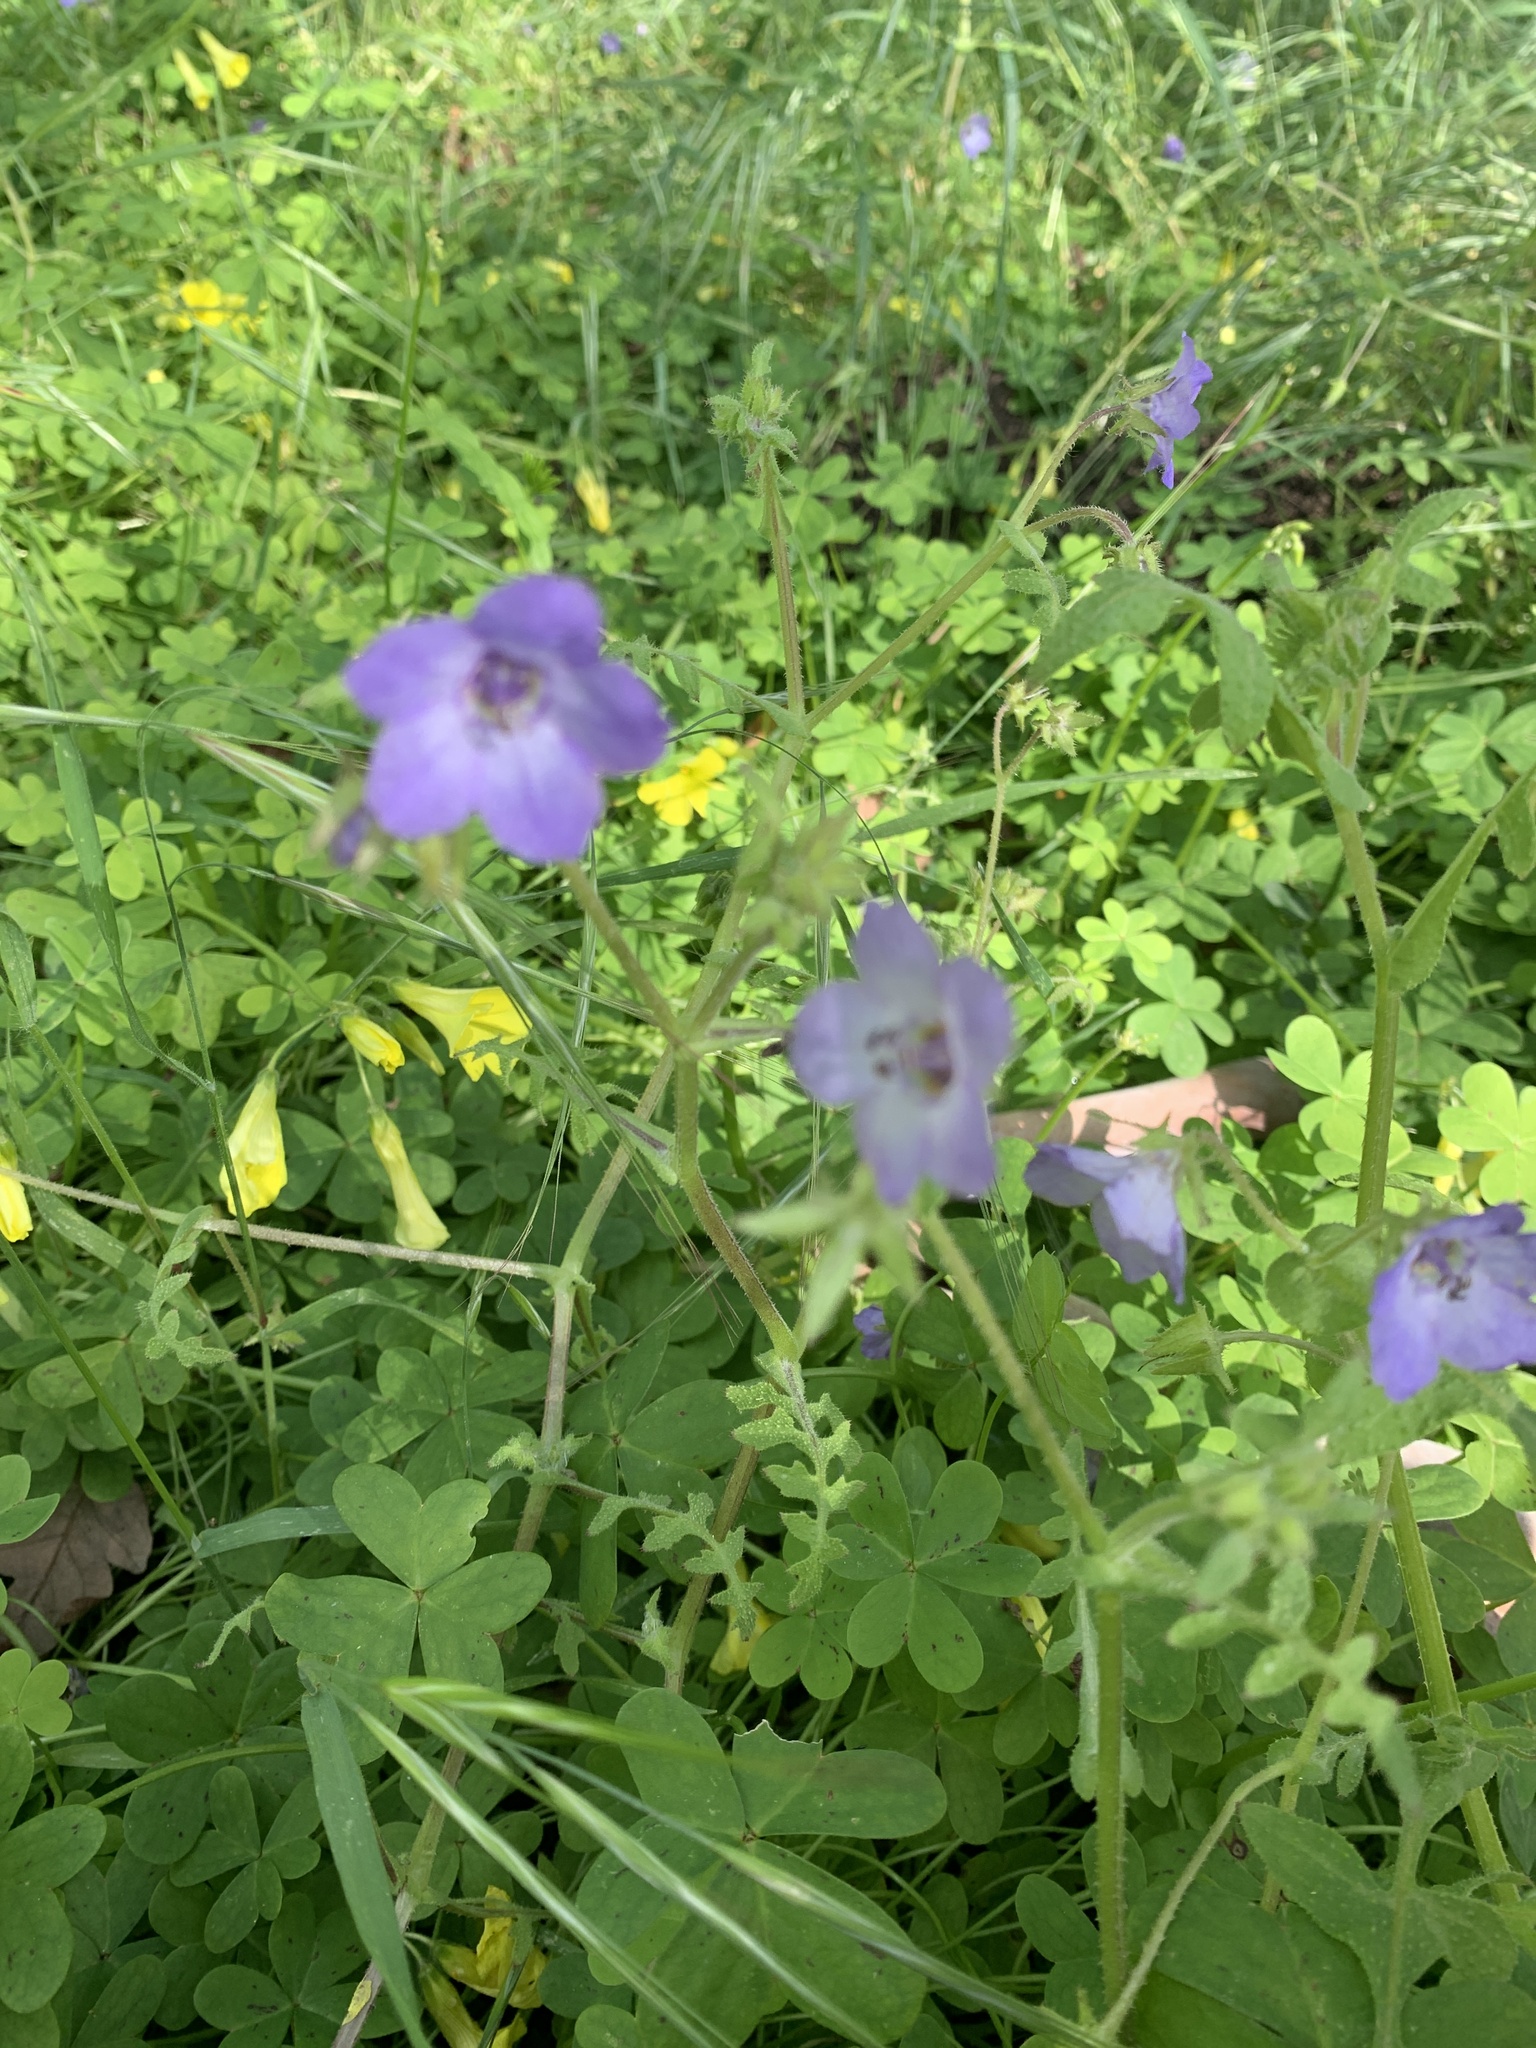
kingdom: Plantae
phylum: Tracheophyta
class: Magnoliopsida
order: Boraginales
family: Hydrophyllaceae
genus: Pholistoma
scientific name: Pholistoma auritum
